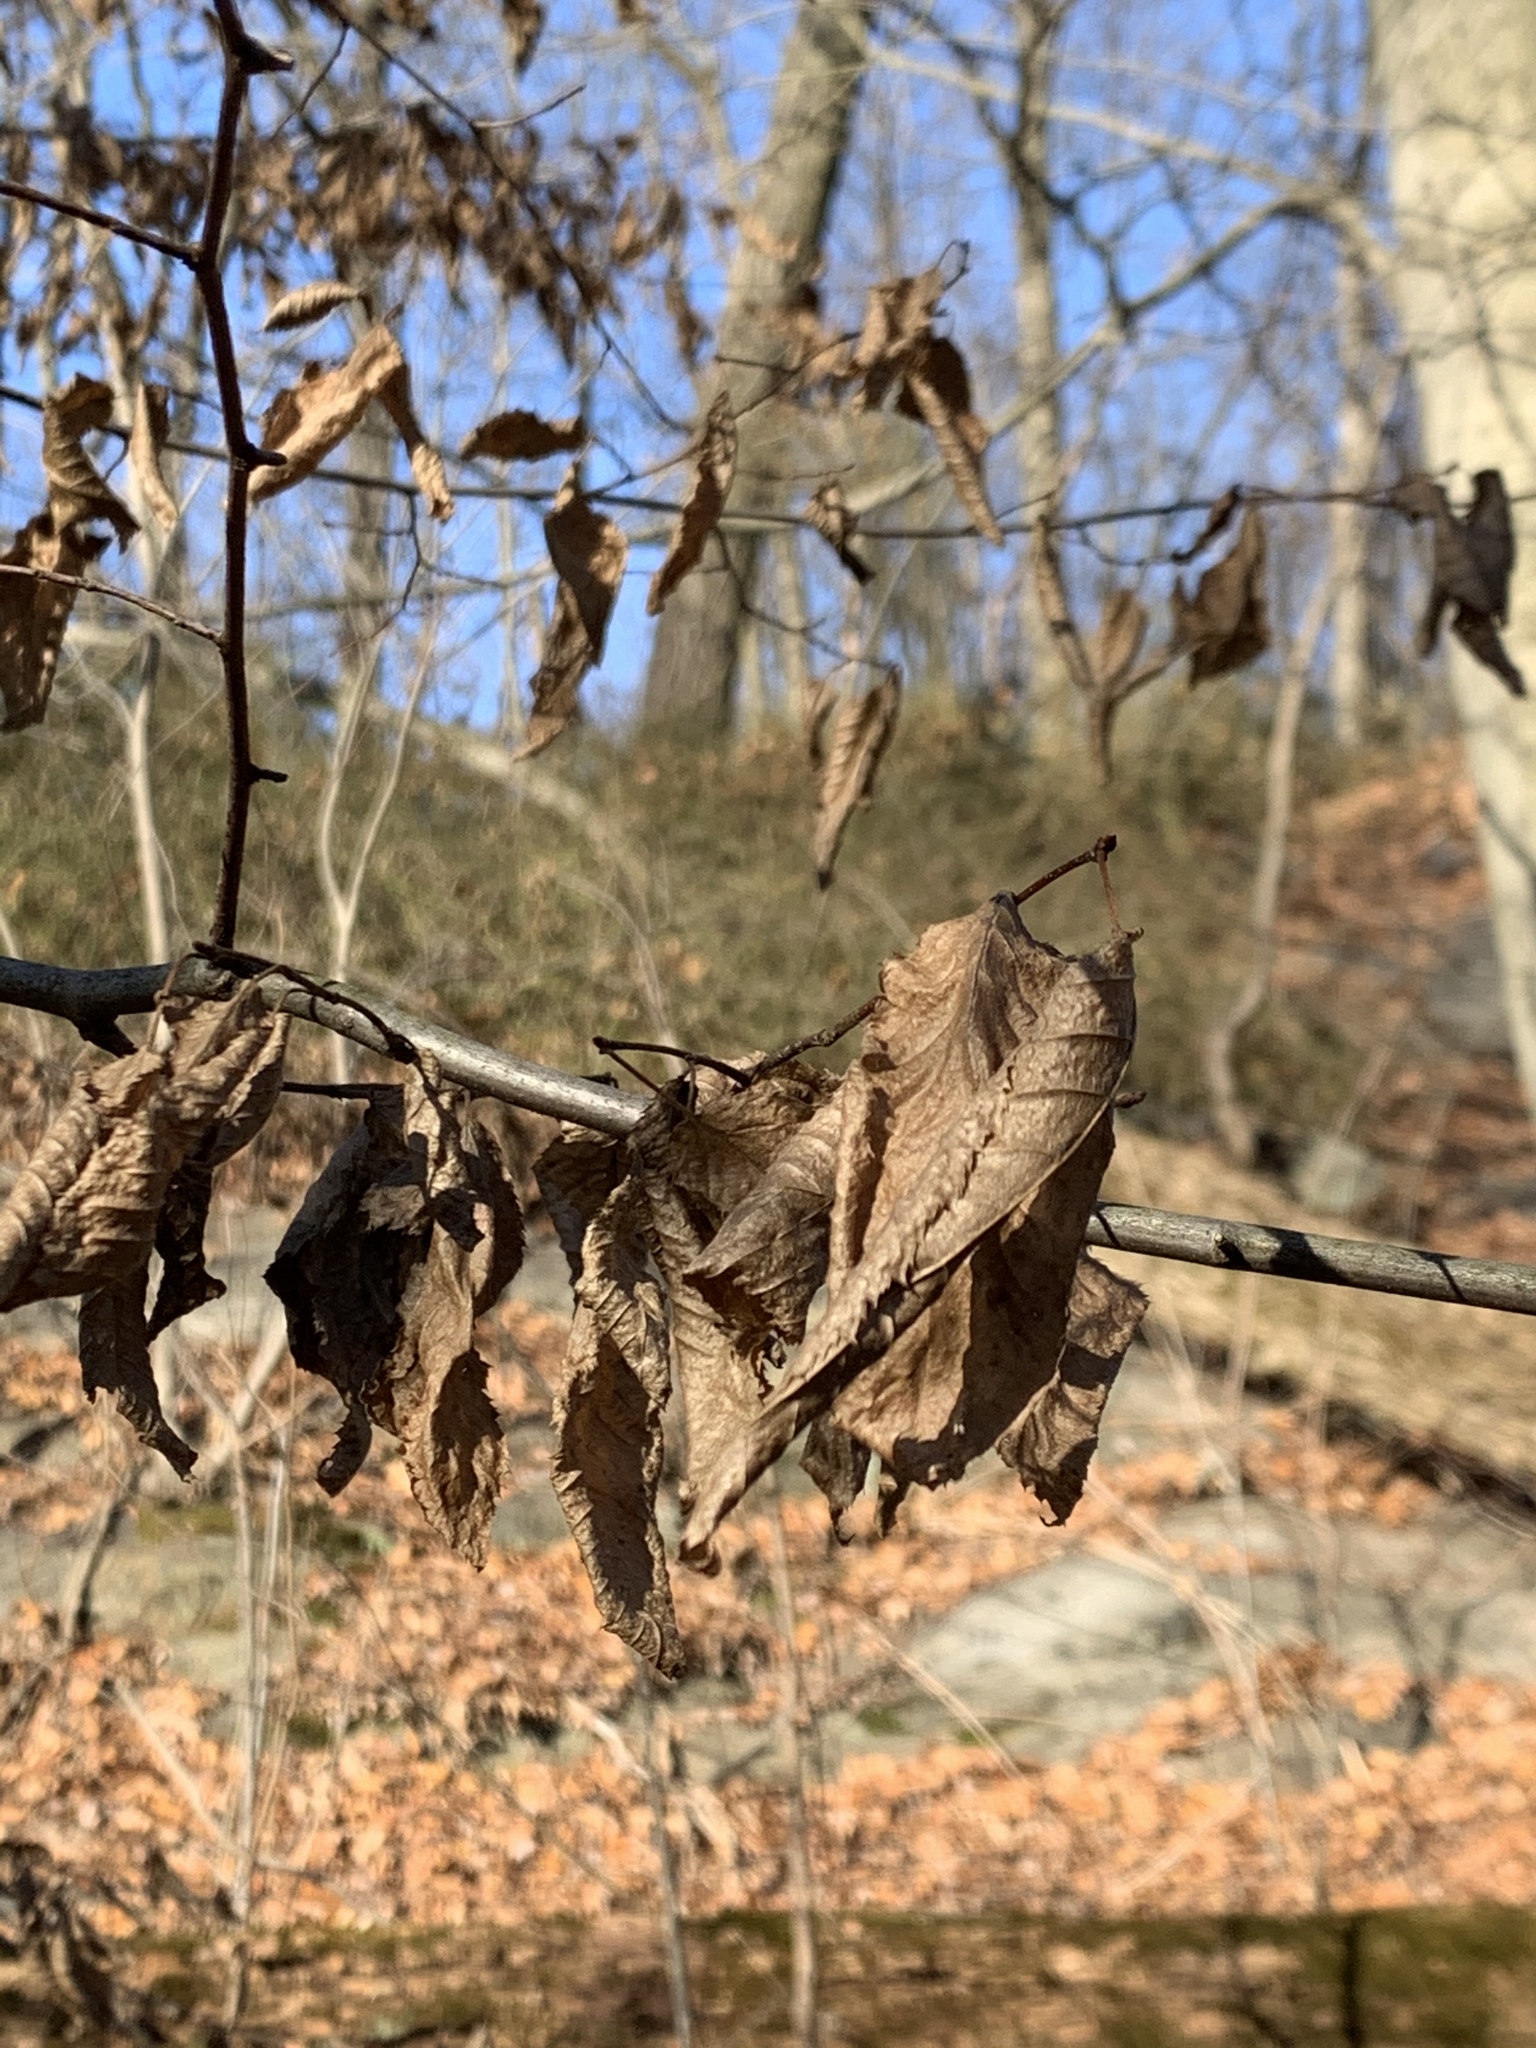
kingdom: Plantae
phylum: Tracheophyta
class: Magnoliopsida
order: Fagales
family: Betulaceae
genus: Carpinus
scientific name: Carpinus caroliniana
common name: American hornbeam
